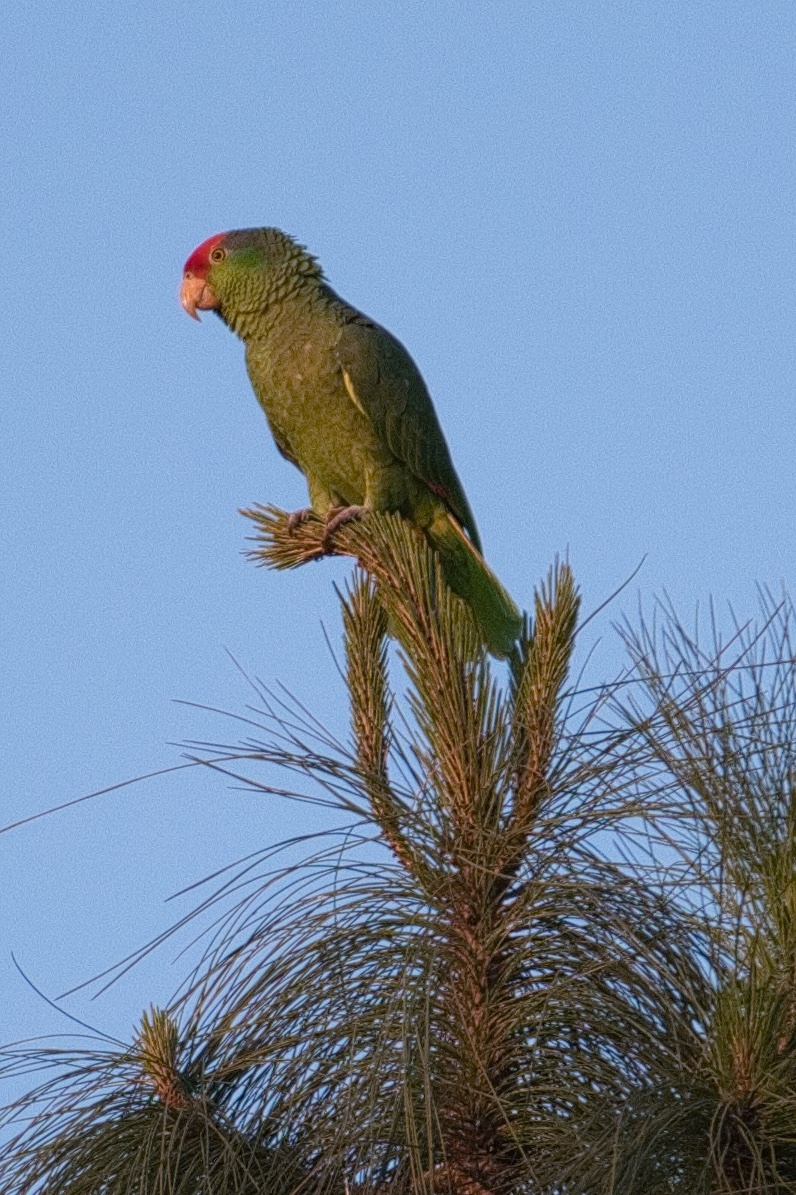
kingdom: Animalia
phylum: Chordata
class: Aves
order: Psittaciformes
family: Psittacidae
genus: Amazona
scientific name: Amazona viridigenalis
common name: Red-crowned amazon
